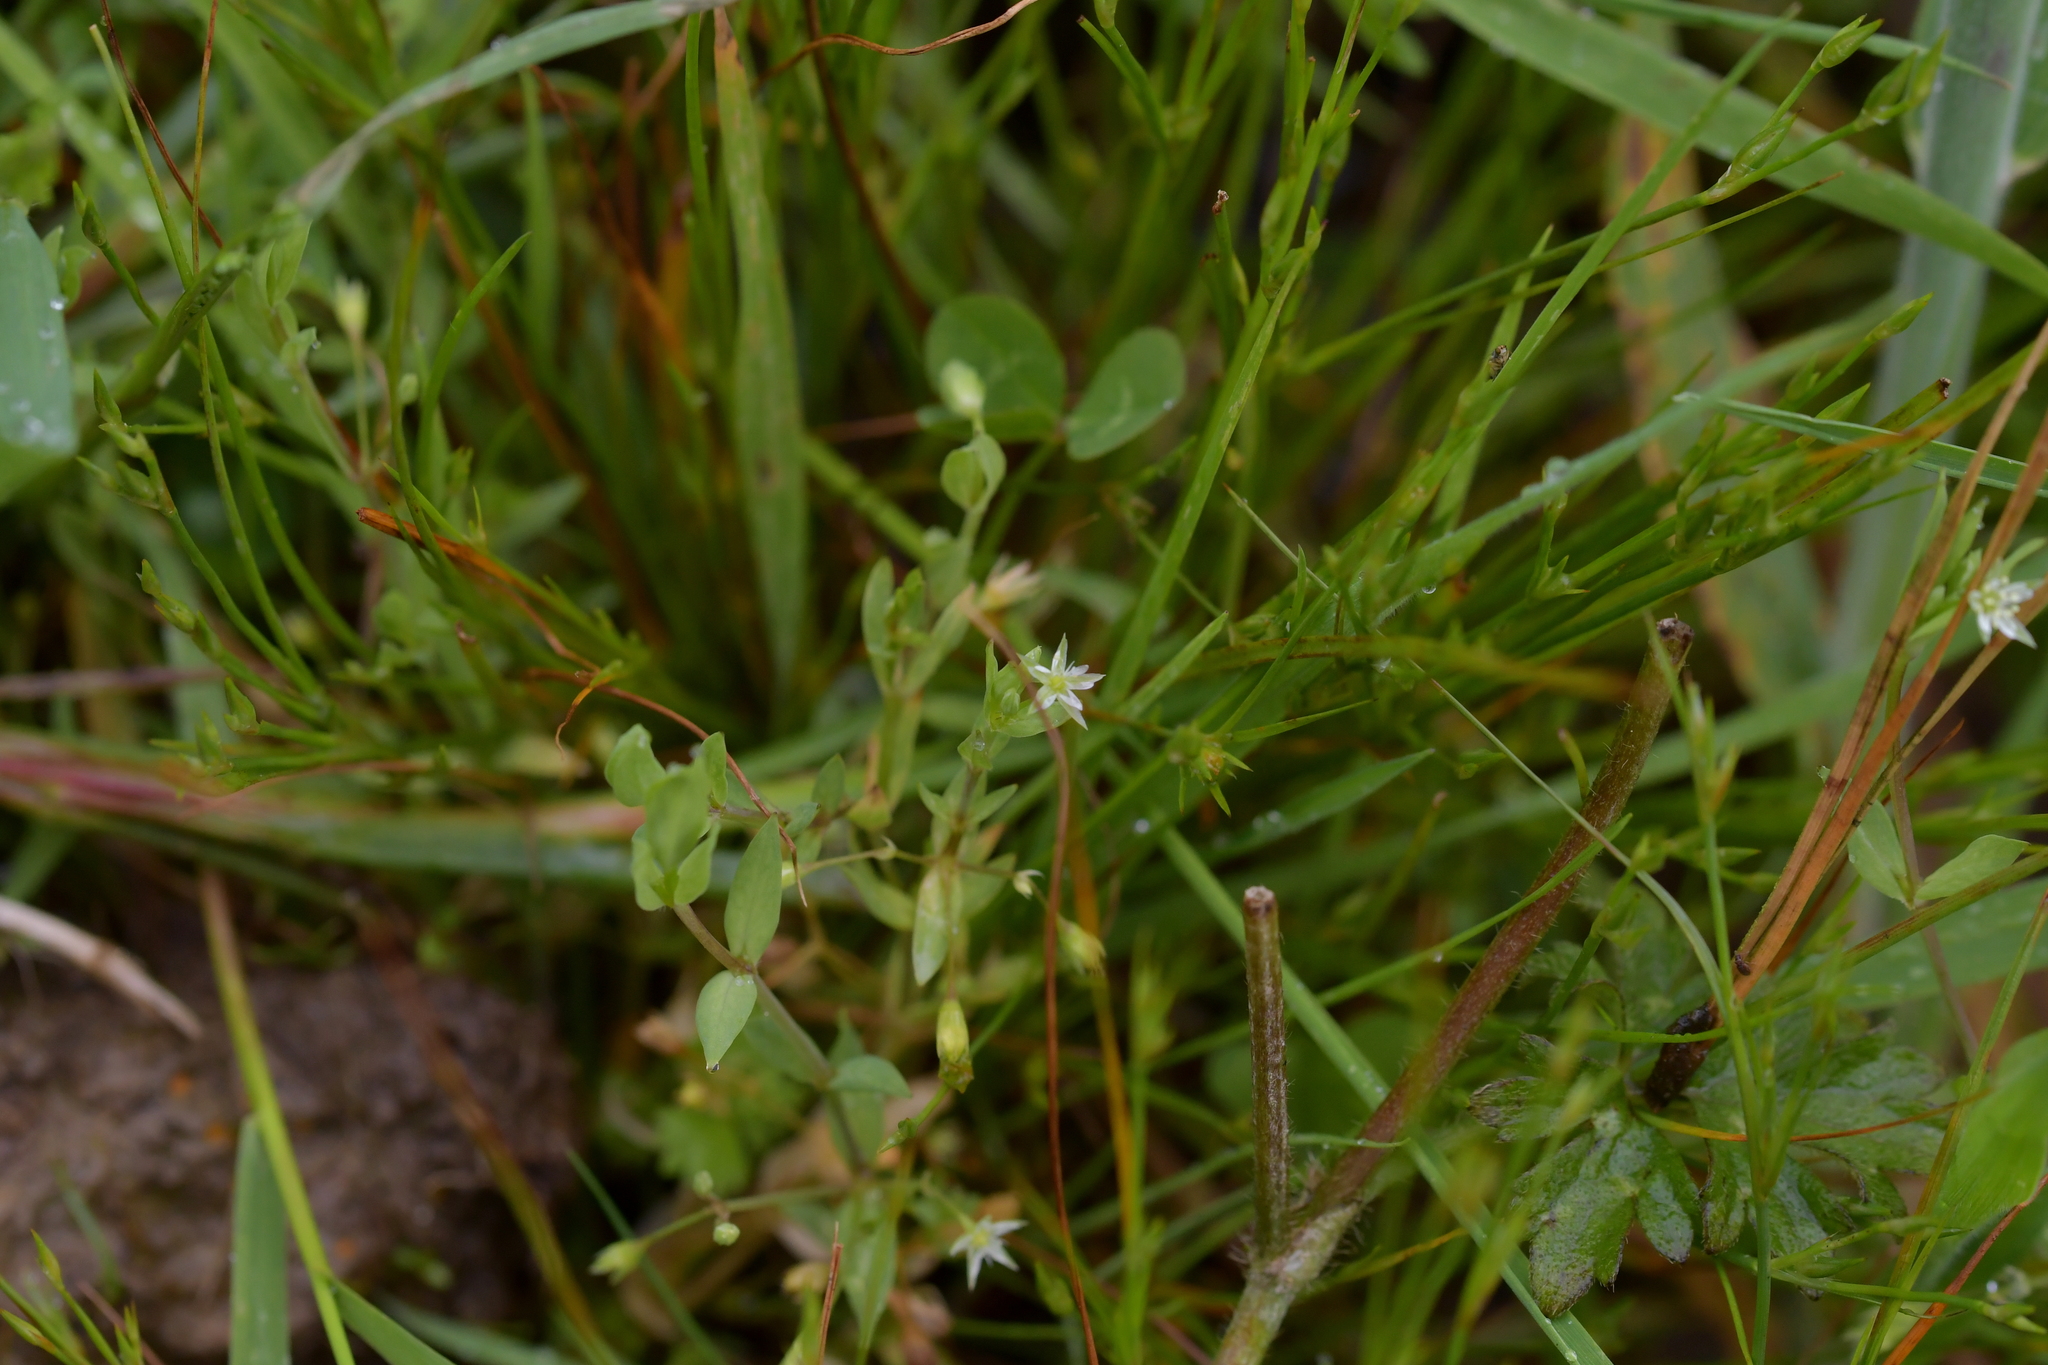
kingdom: Plantae
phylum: Tracheophyta
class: Magnoliopsida
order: Caryophyllales
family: Caryophyllaceae
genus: Stellaria
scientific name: Stellaria alsine
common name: Bog stitchwort
